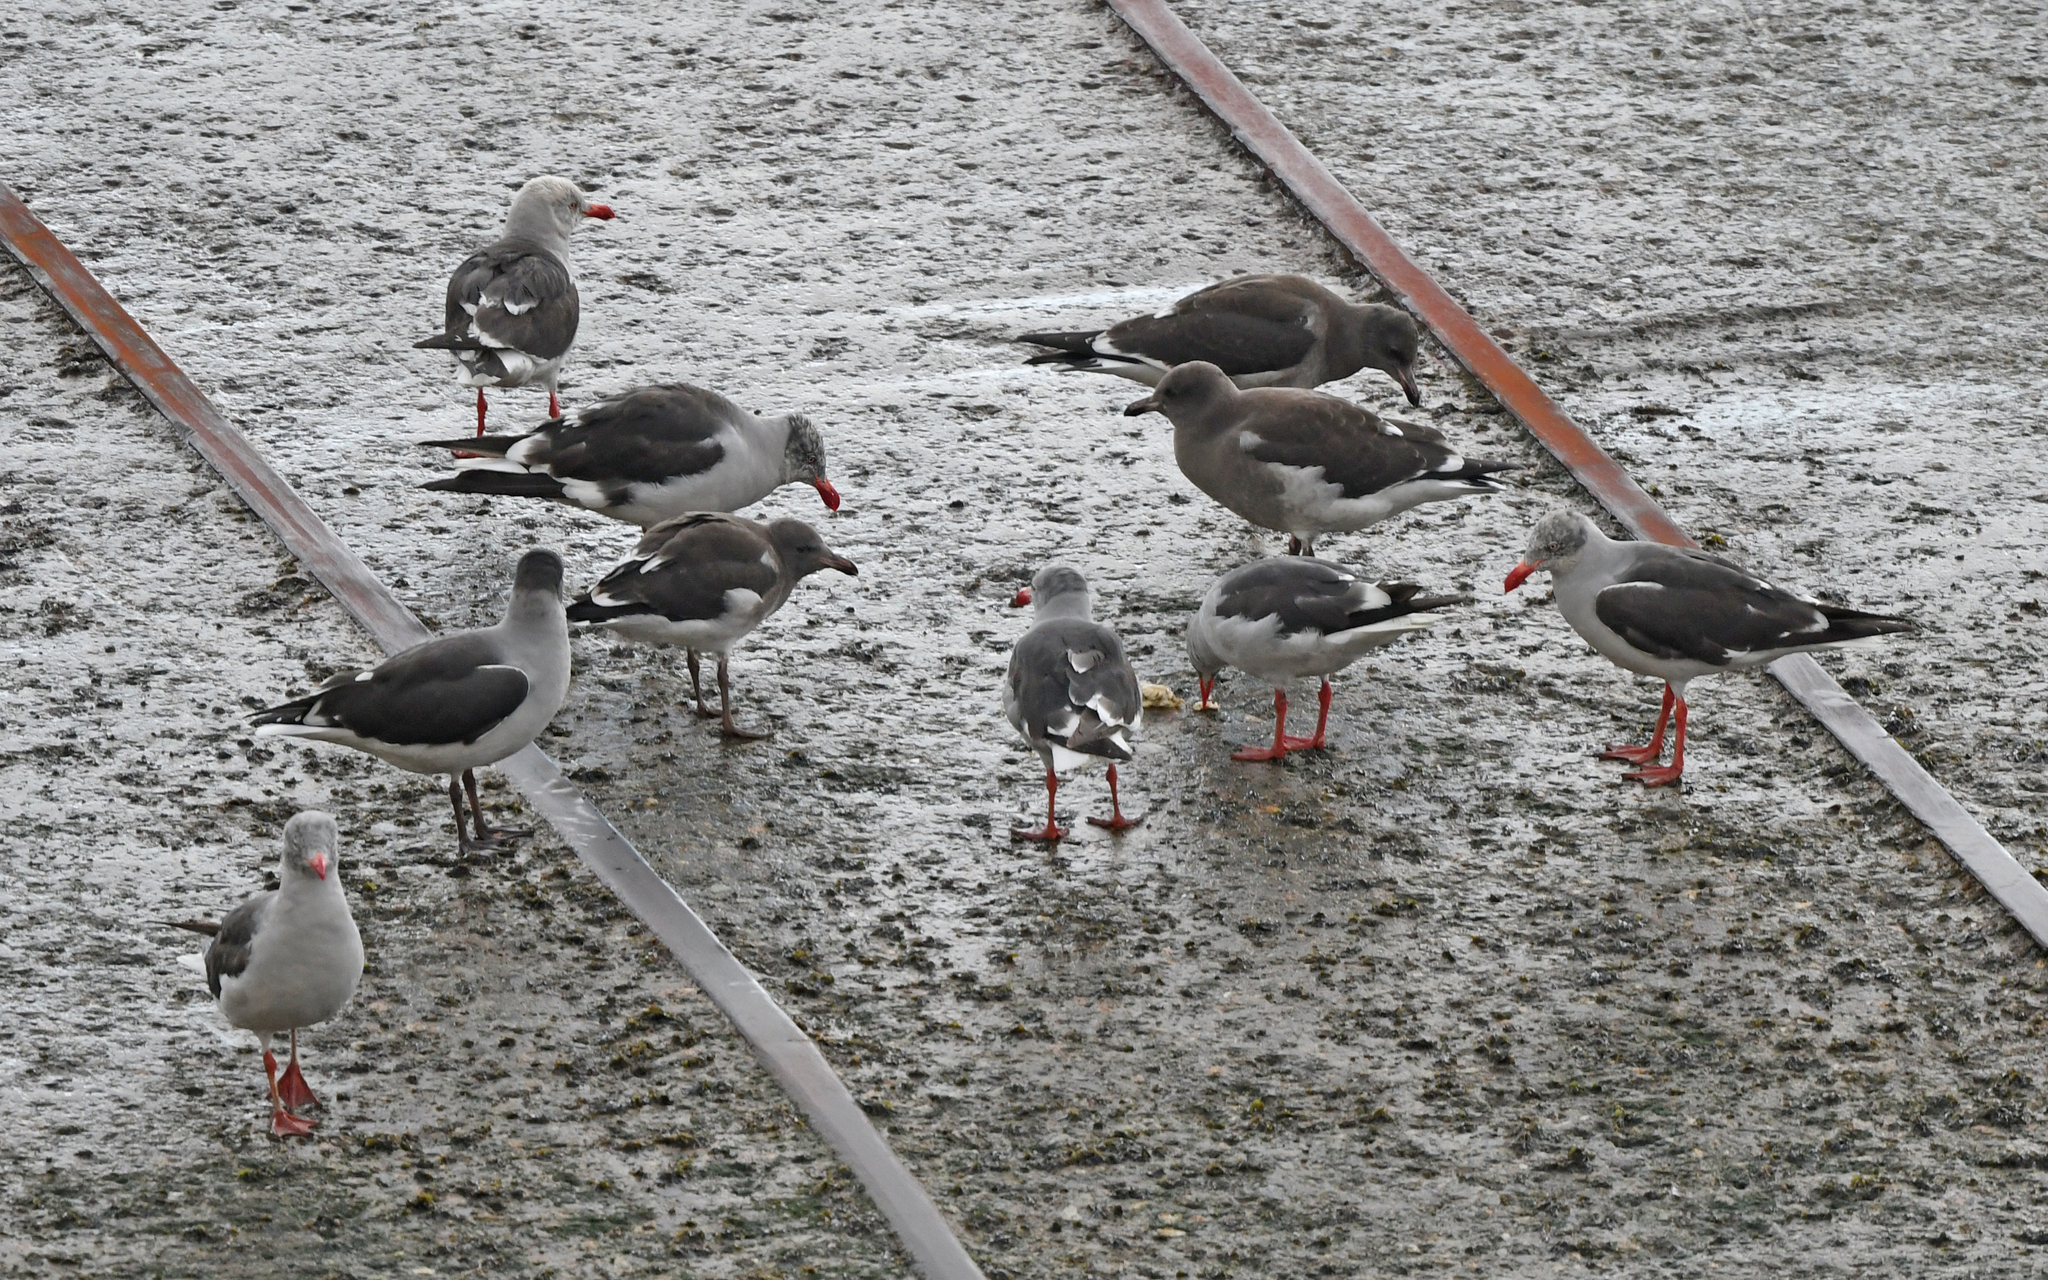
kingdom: Animalia
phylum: Chordata
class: Aves
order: Charadriiformes
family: Laridae
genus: Leucophaeus
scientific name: Leucophaeus scoresbii
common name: Dolphin gull
